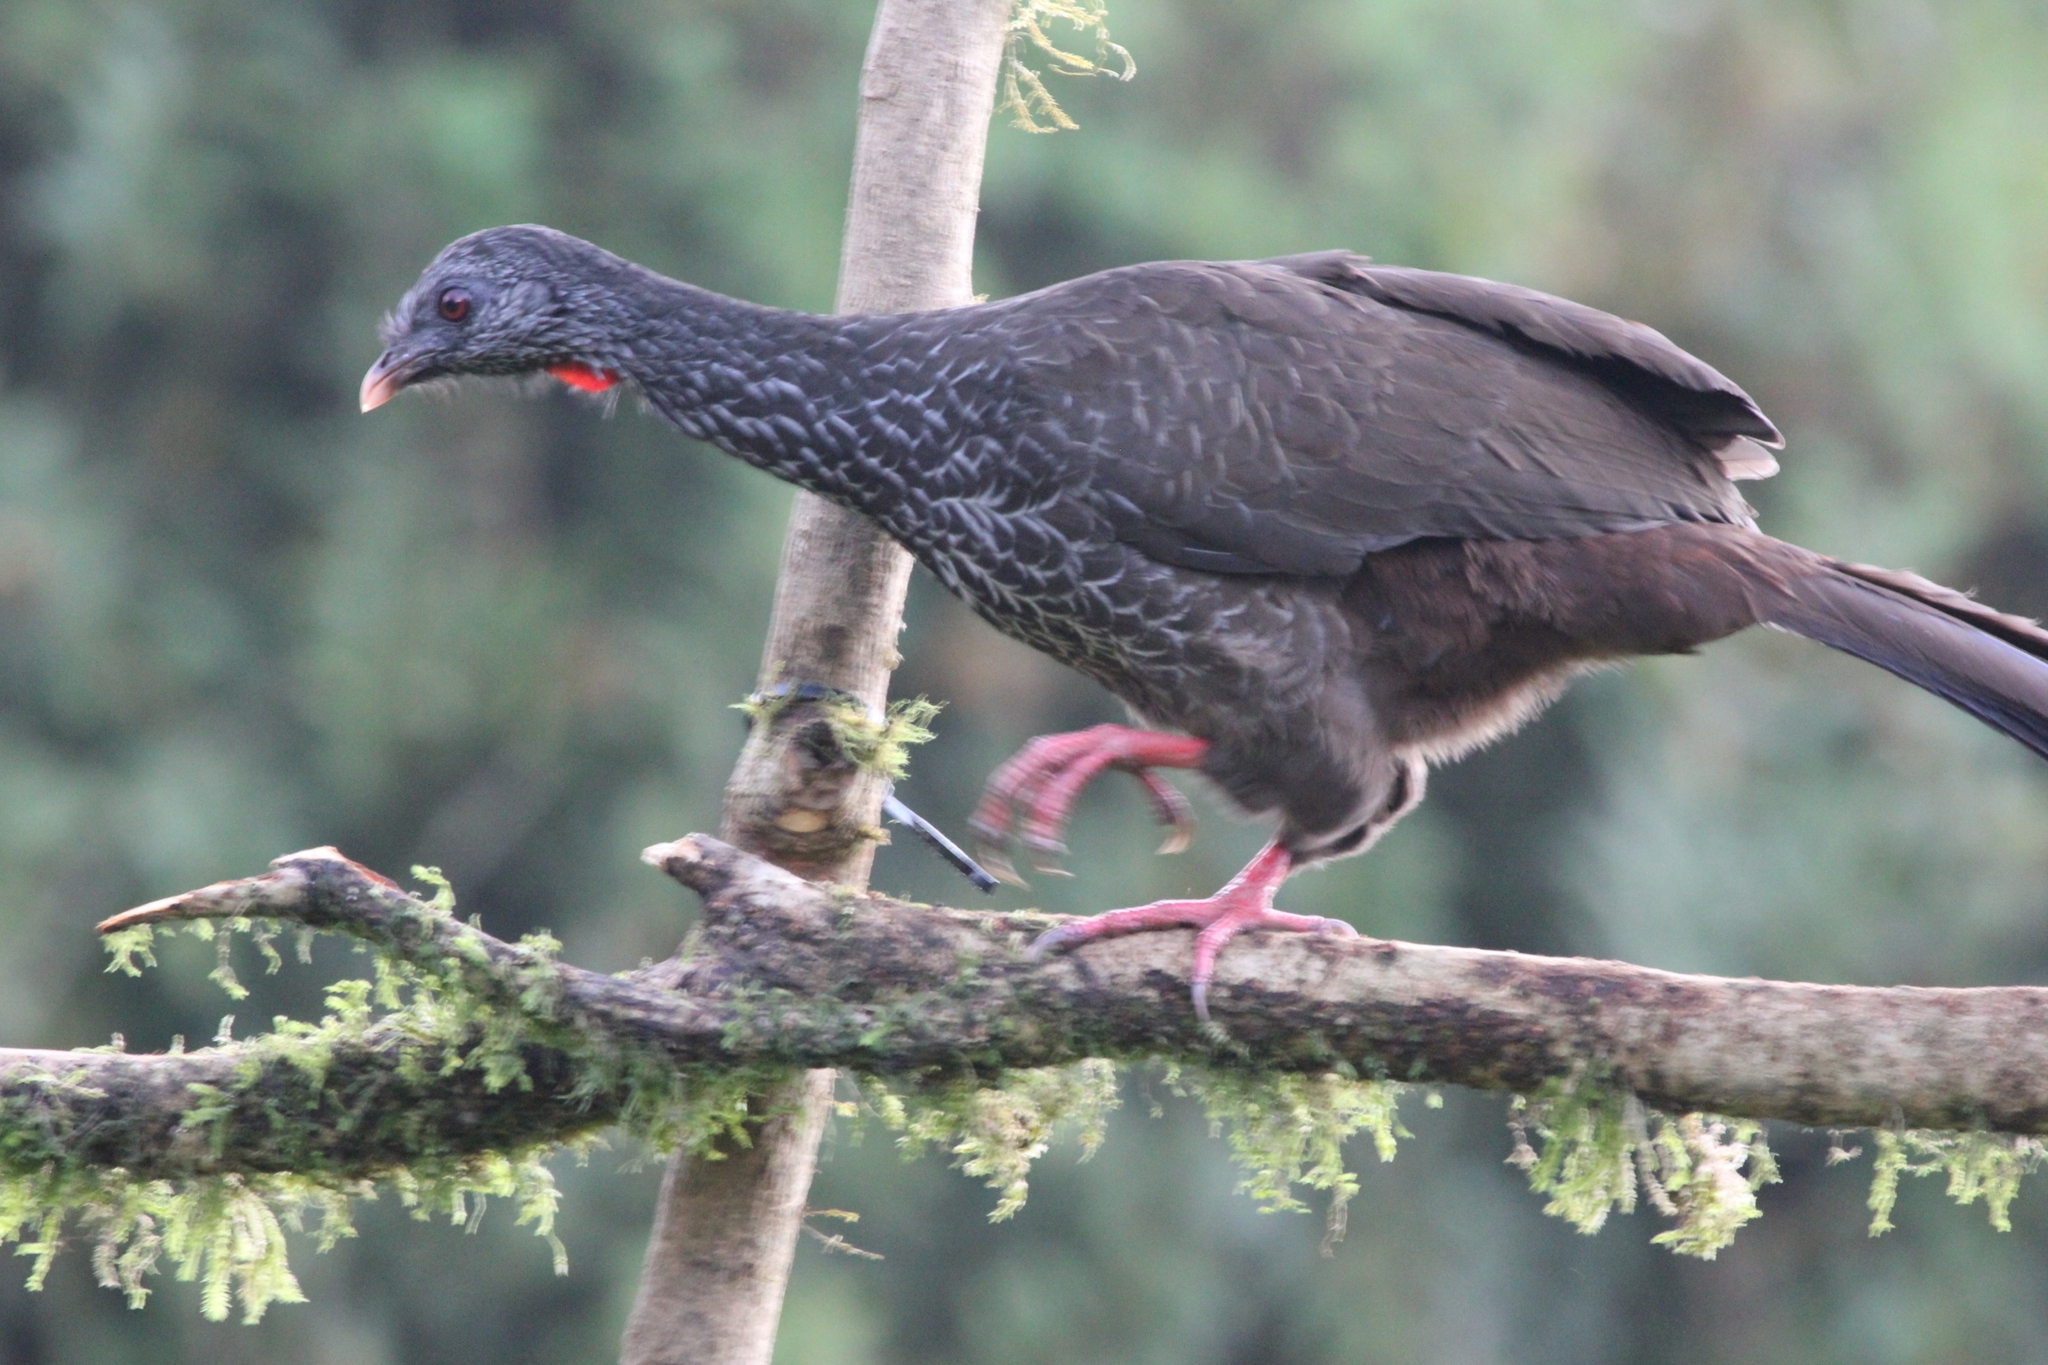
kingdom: Animalia
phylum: Chordata
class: Aves
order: Galliformes
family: Cracidae
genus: Penelope
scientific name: Penelope montagnii
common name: Andean guan
